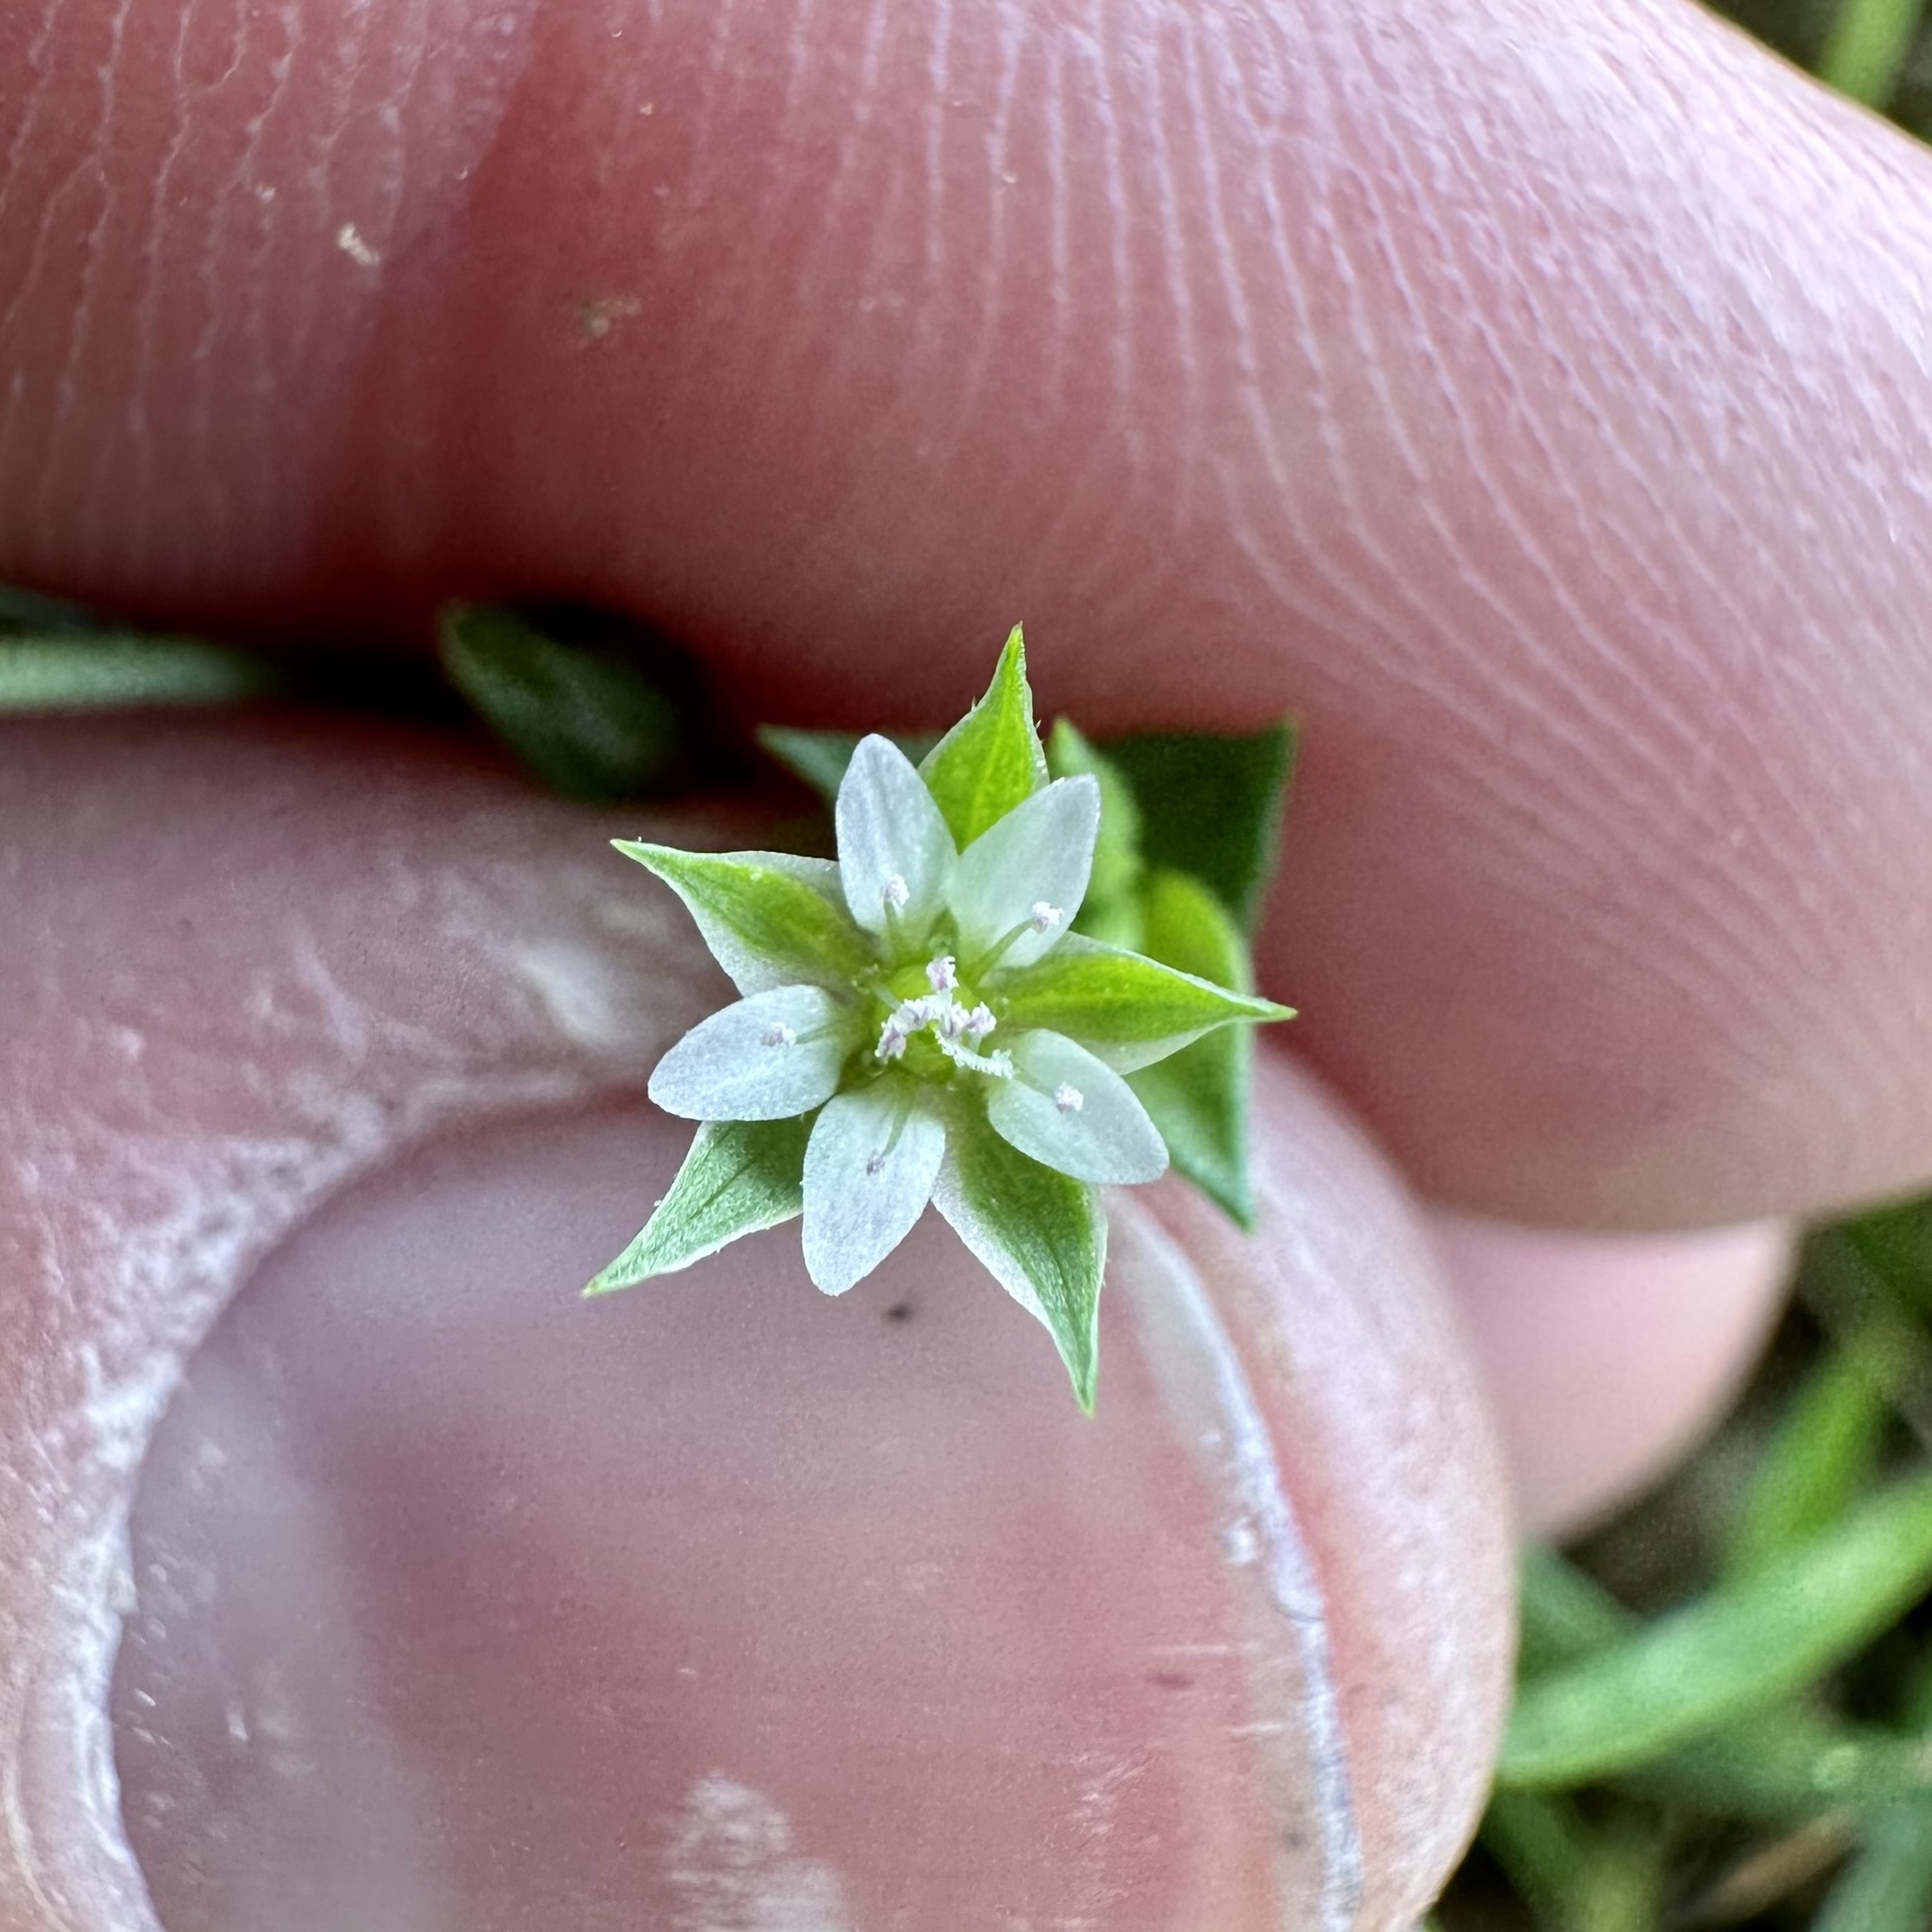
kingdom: Plantae
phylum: Tracheophyta
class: Magnoliopsida
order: Caryophyllales
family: Caryophyllaceae
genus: Arenaria
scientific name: Arenaria serpyllifolia
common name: Thyme-leaved sandwort
